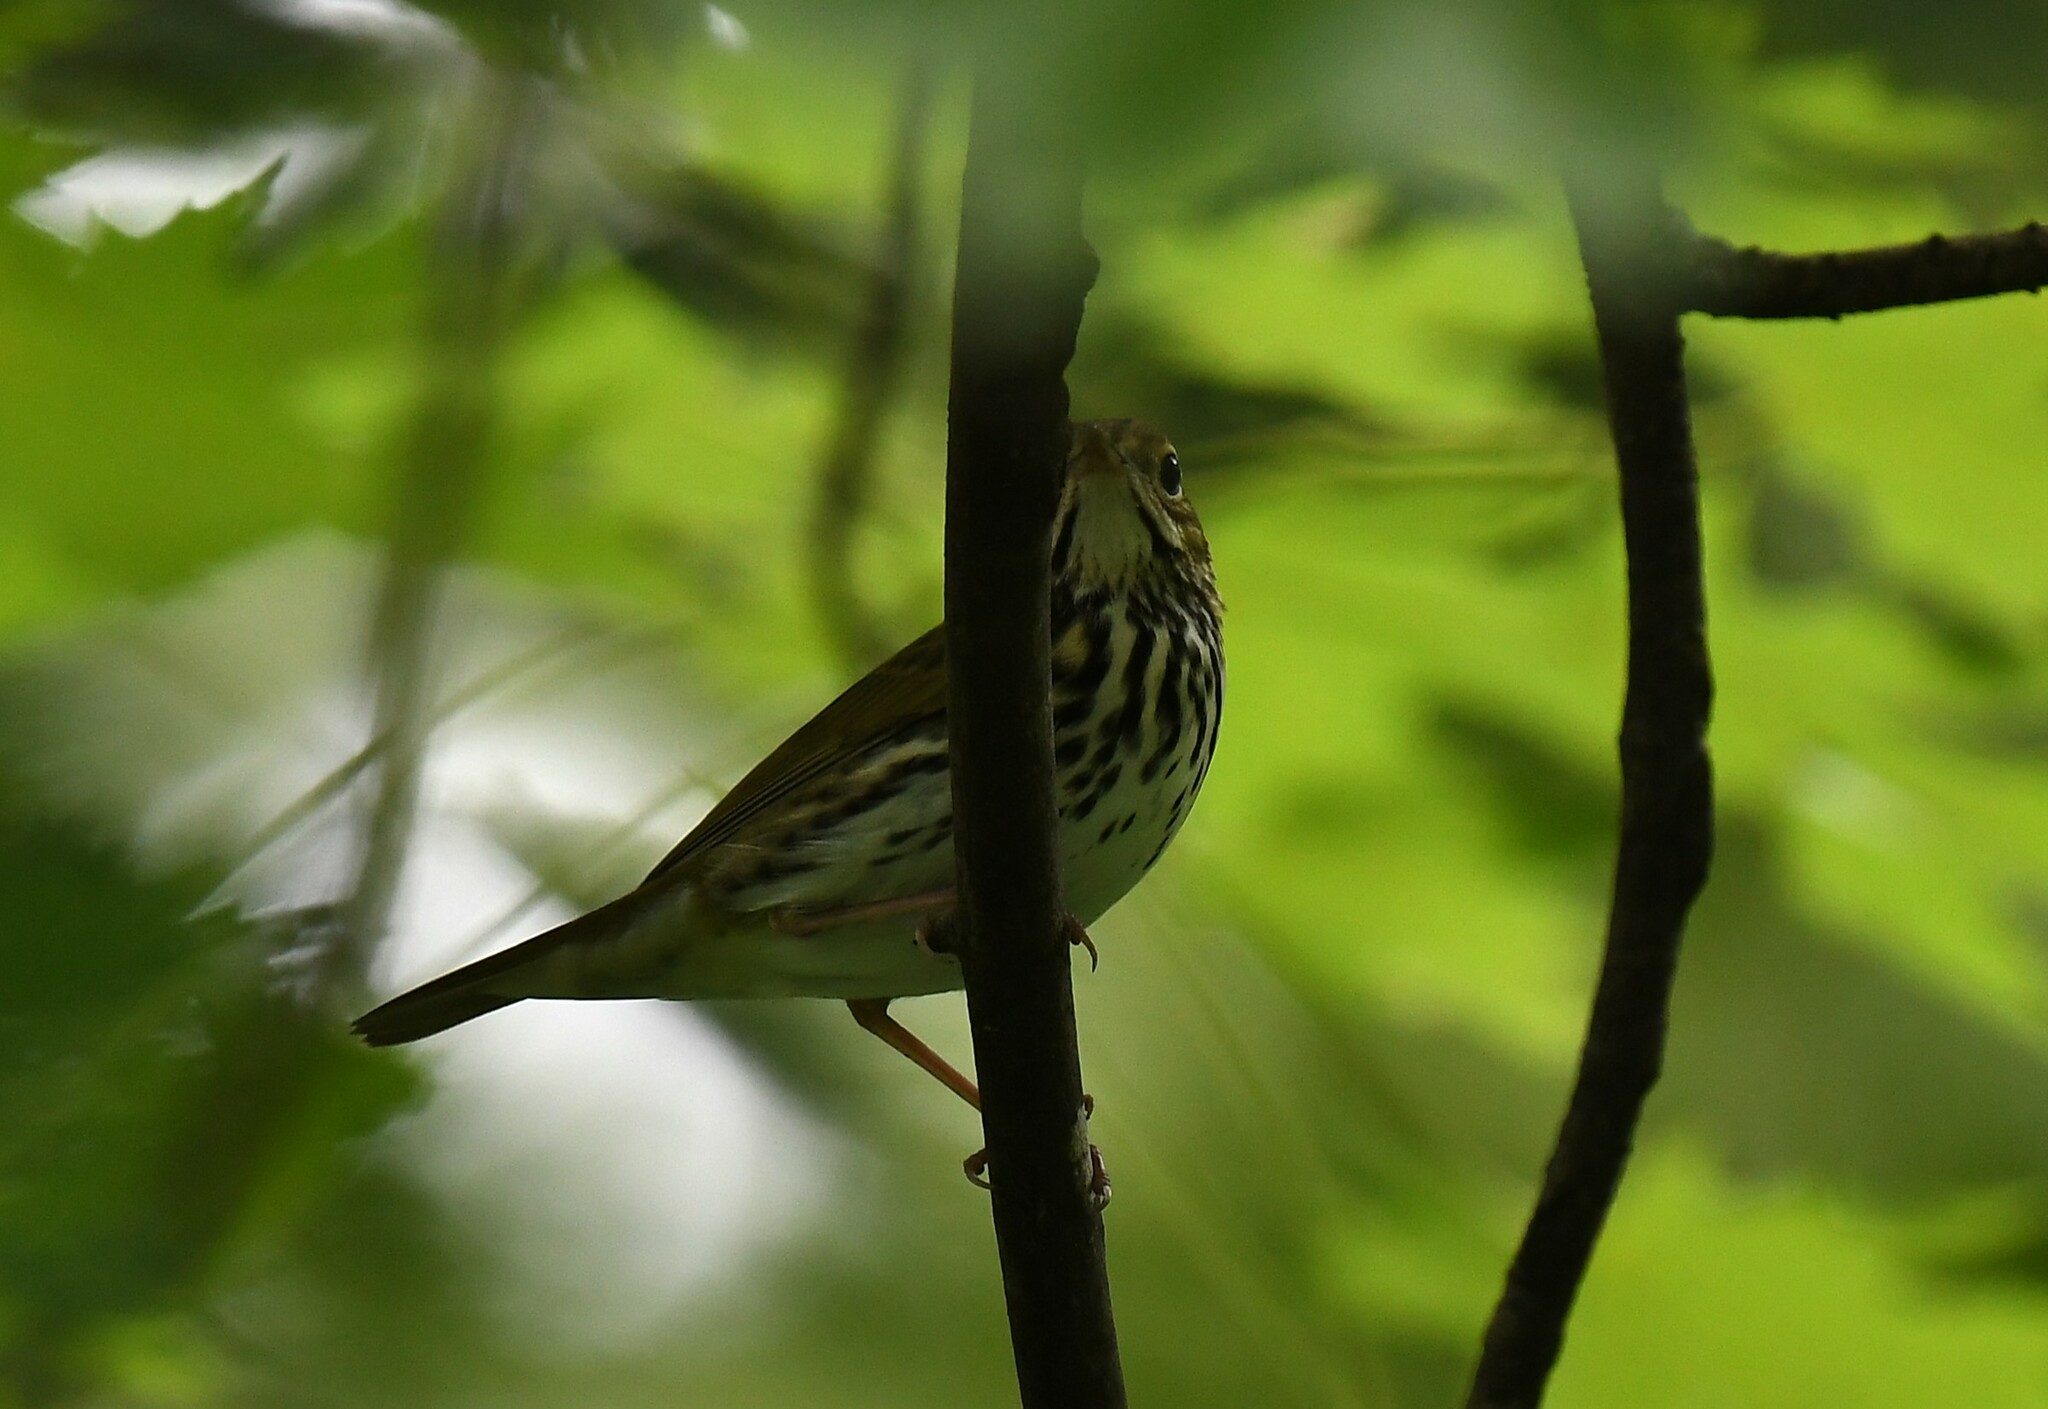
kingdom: Animalia
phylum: Chordata
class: Aves
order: Passeriformes
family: Parulidae
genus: Seiurus
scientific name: Seiurus aurocapilla
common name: Ovenbird
